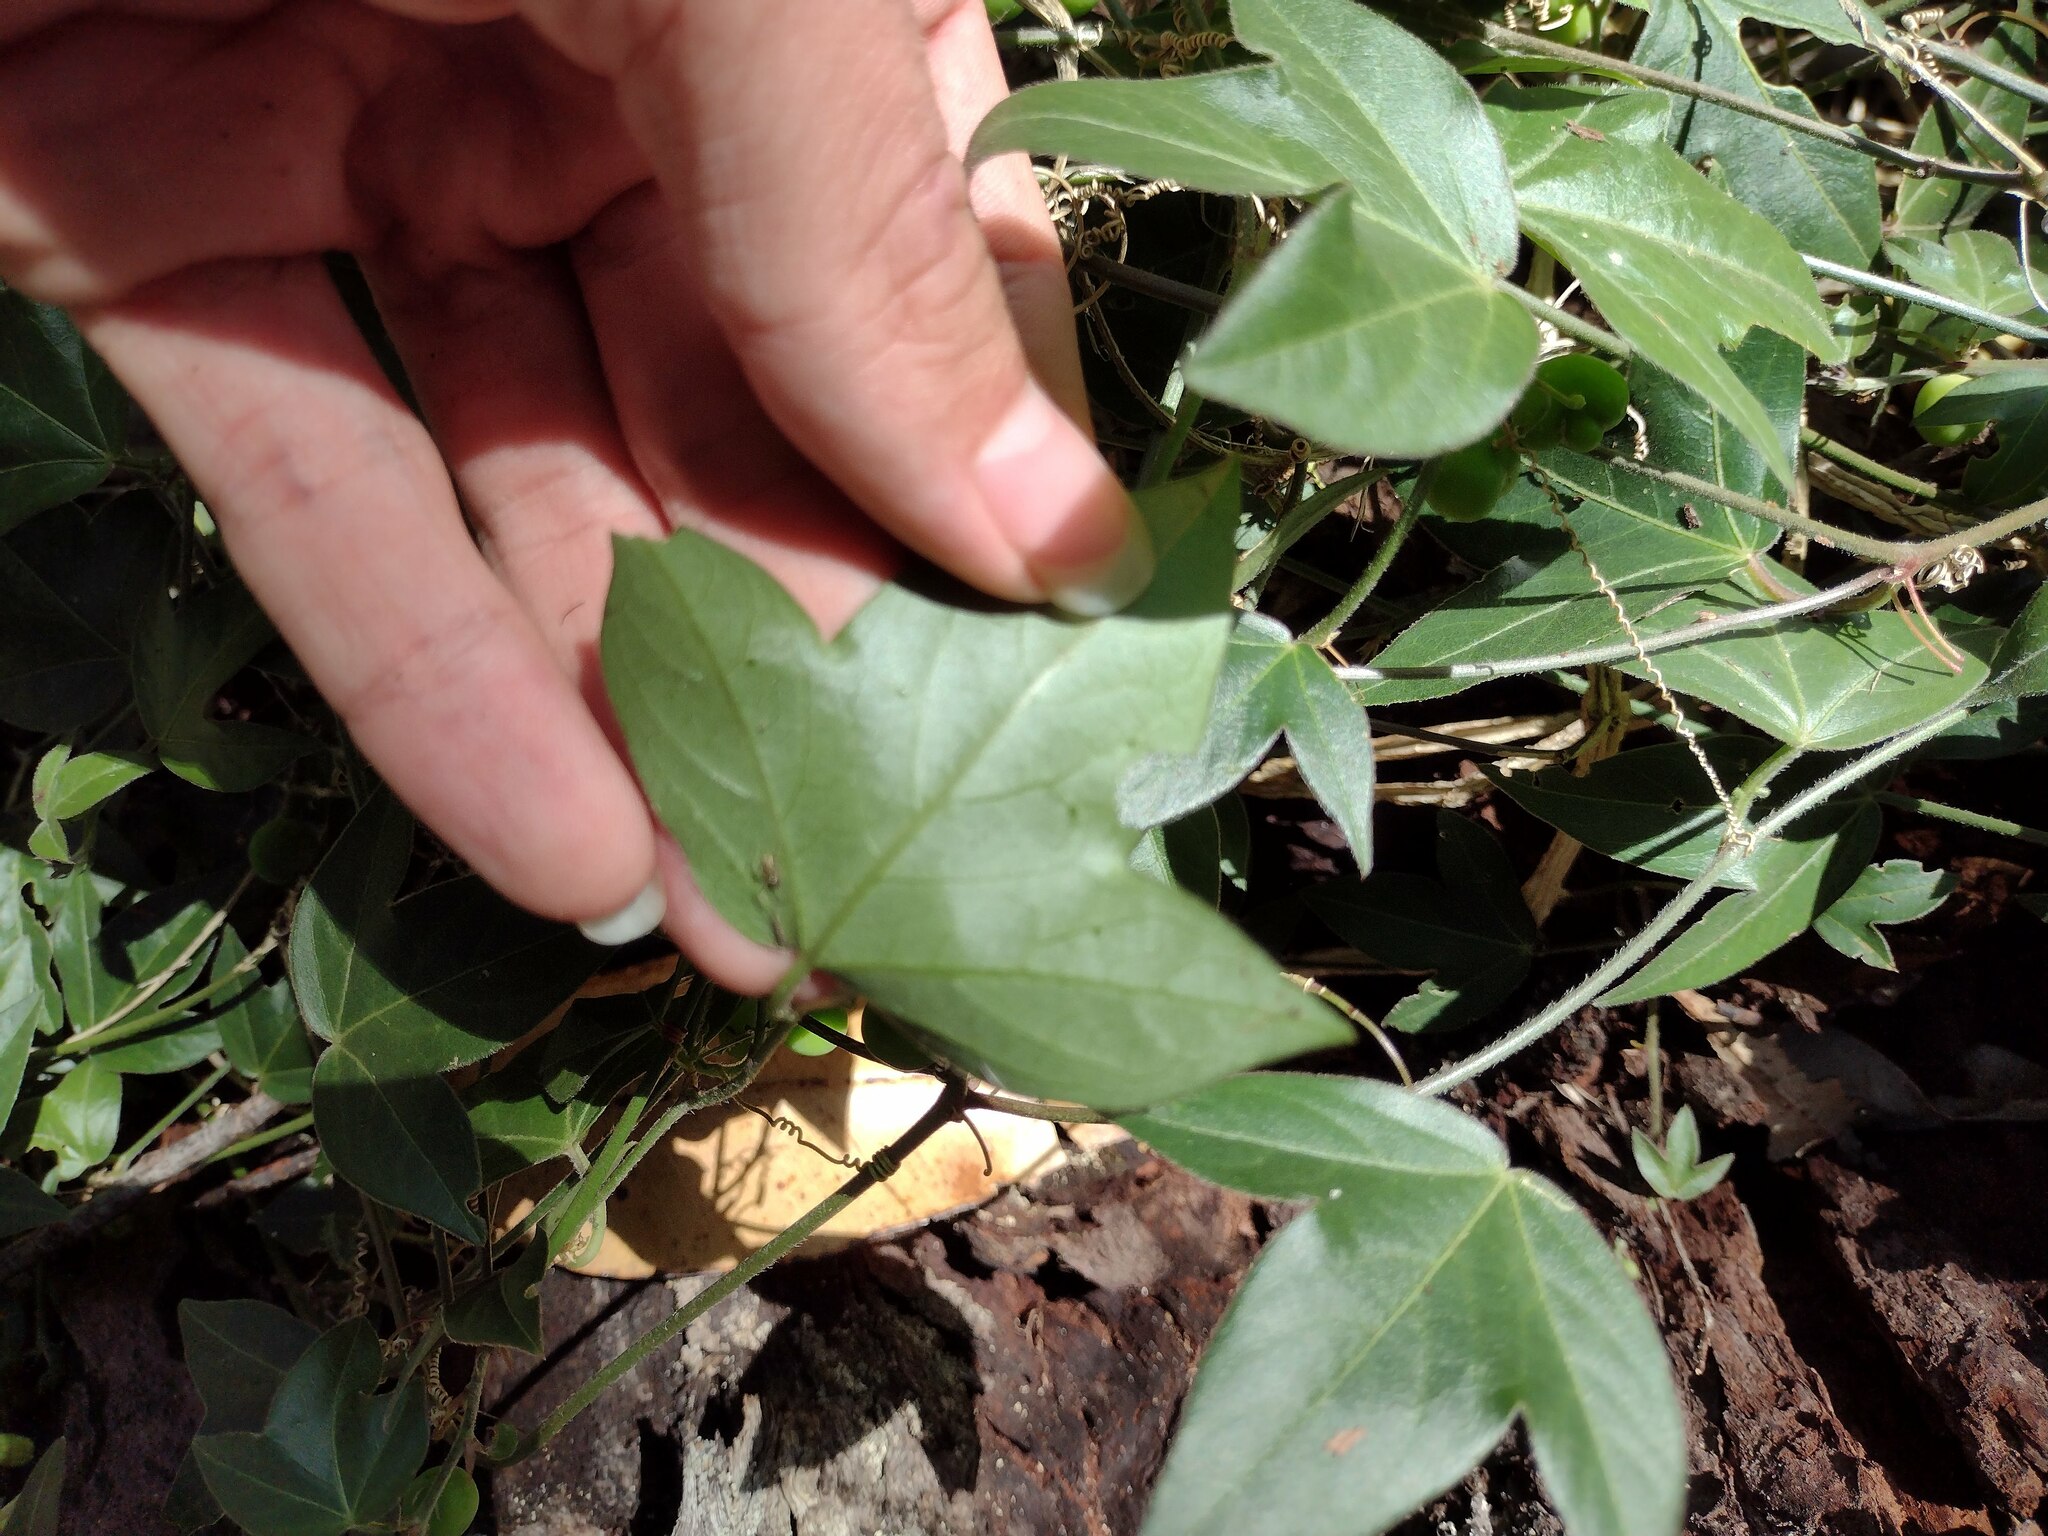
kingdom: Plantae
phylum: Tracheophyta
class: Magnoliopsida
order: Malpighiales
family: Passifloraceae
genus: Passiflora
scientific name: Passiflora suberosa
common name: Wild passionfruit
